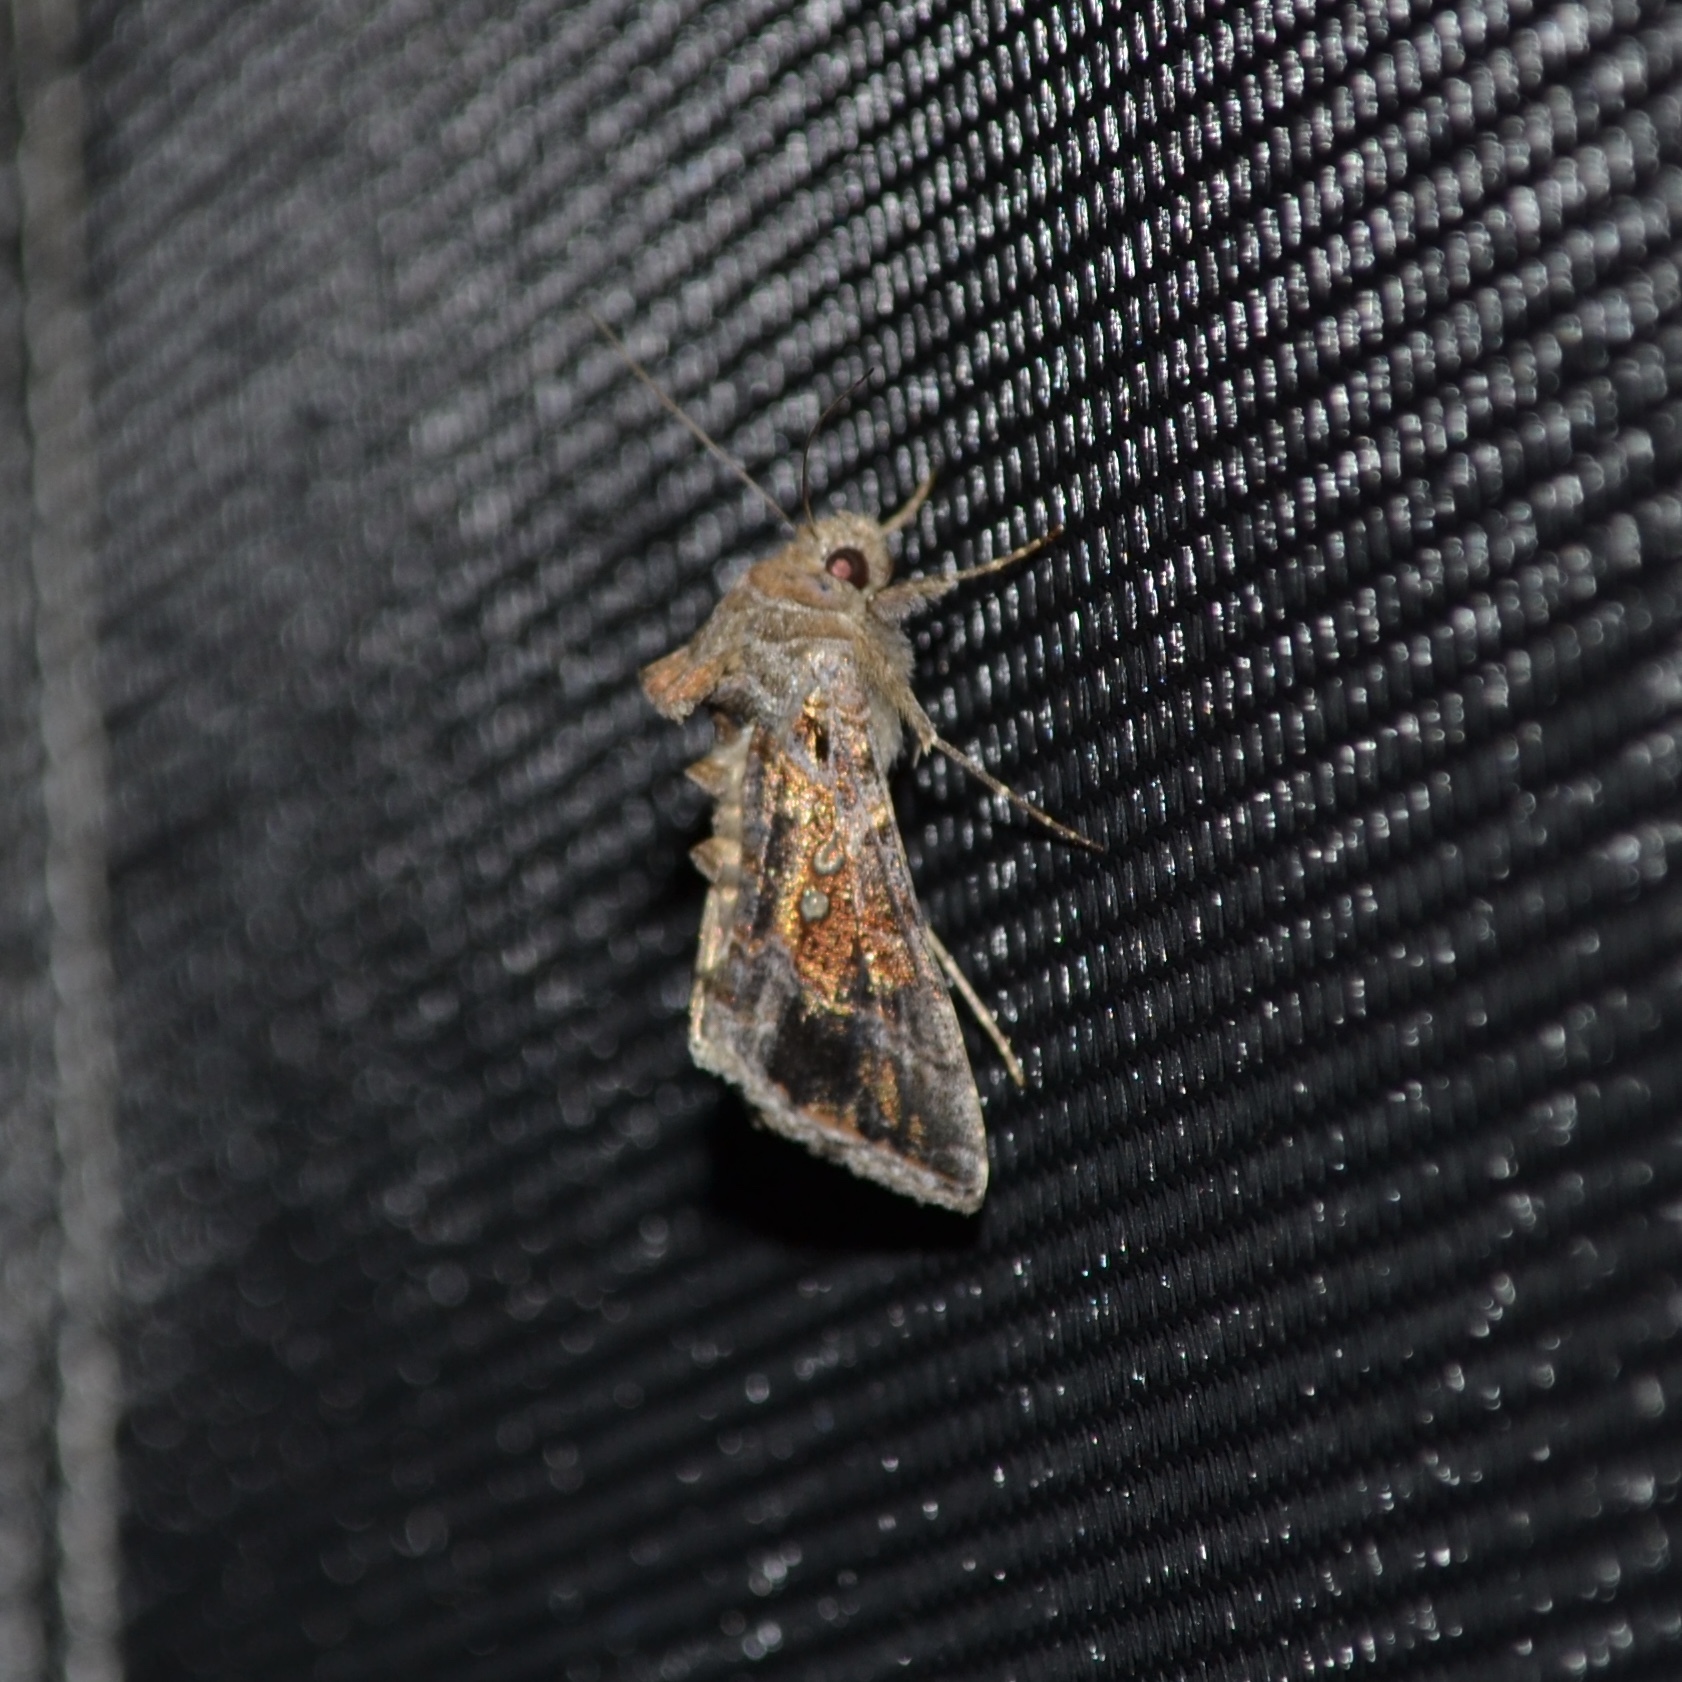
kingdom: Animalia
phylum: Arthropoda
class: Insecta
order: Lepidoptera
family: Noctuidae
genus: Chrysodeixis
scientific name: Chrysodeixis includens
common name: Cutworm moth
